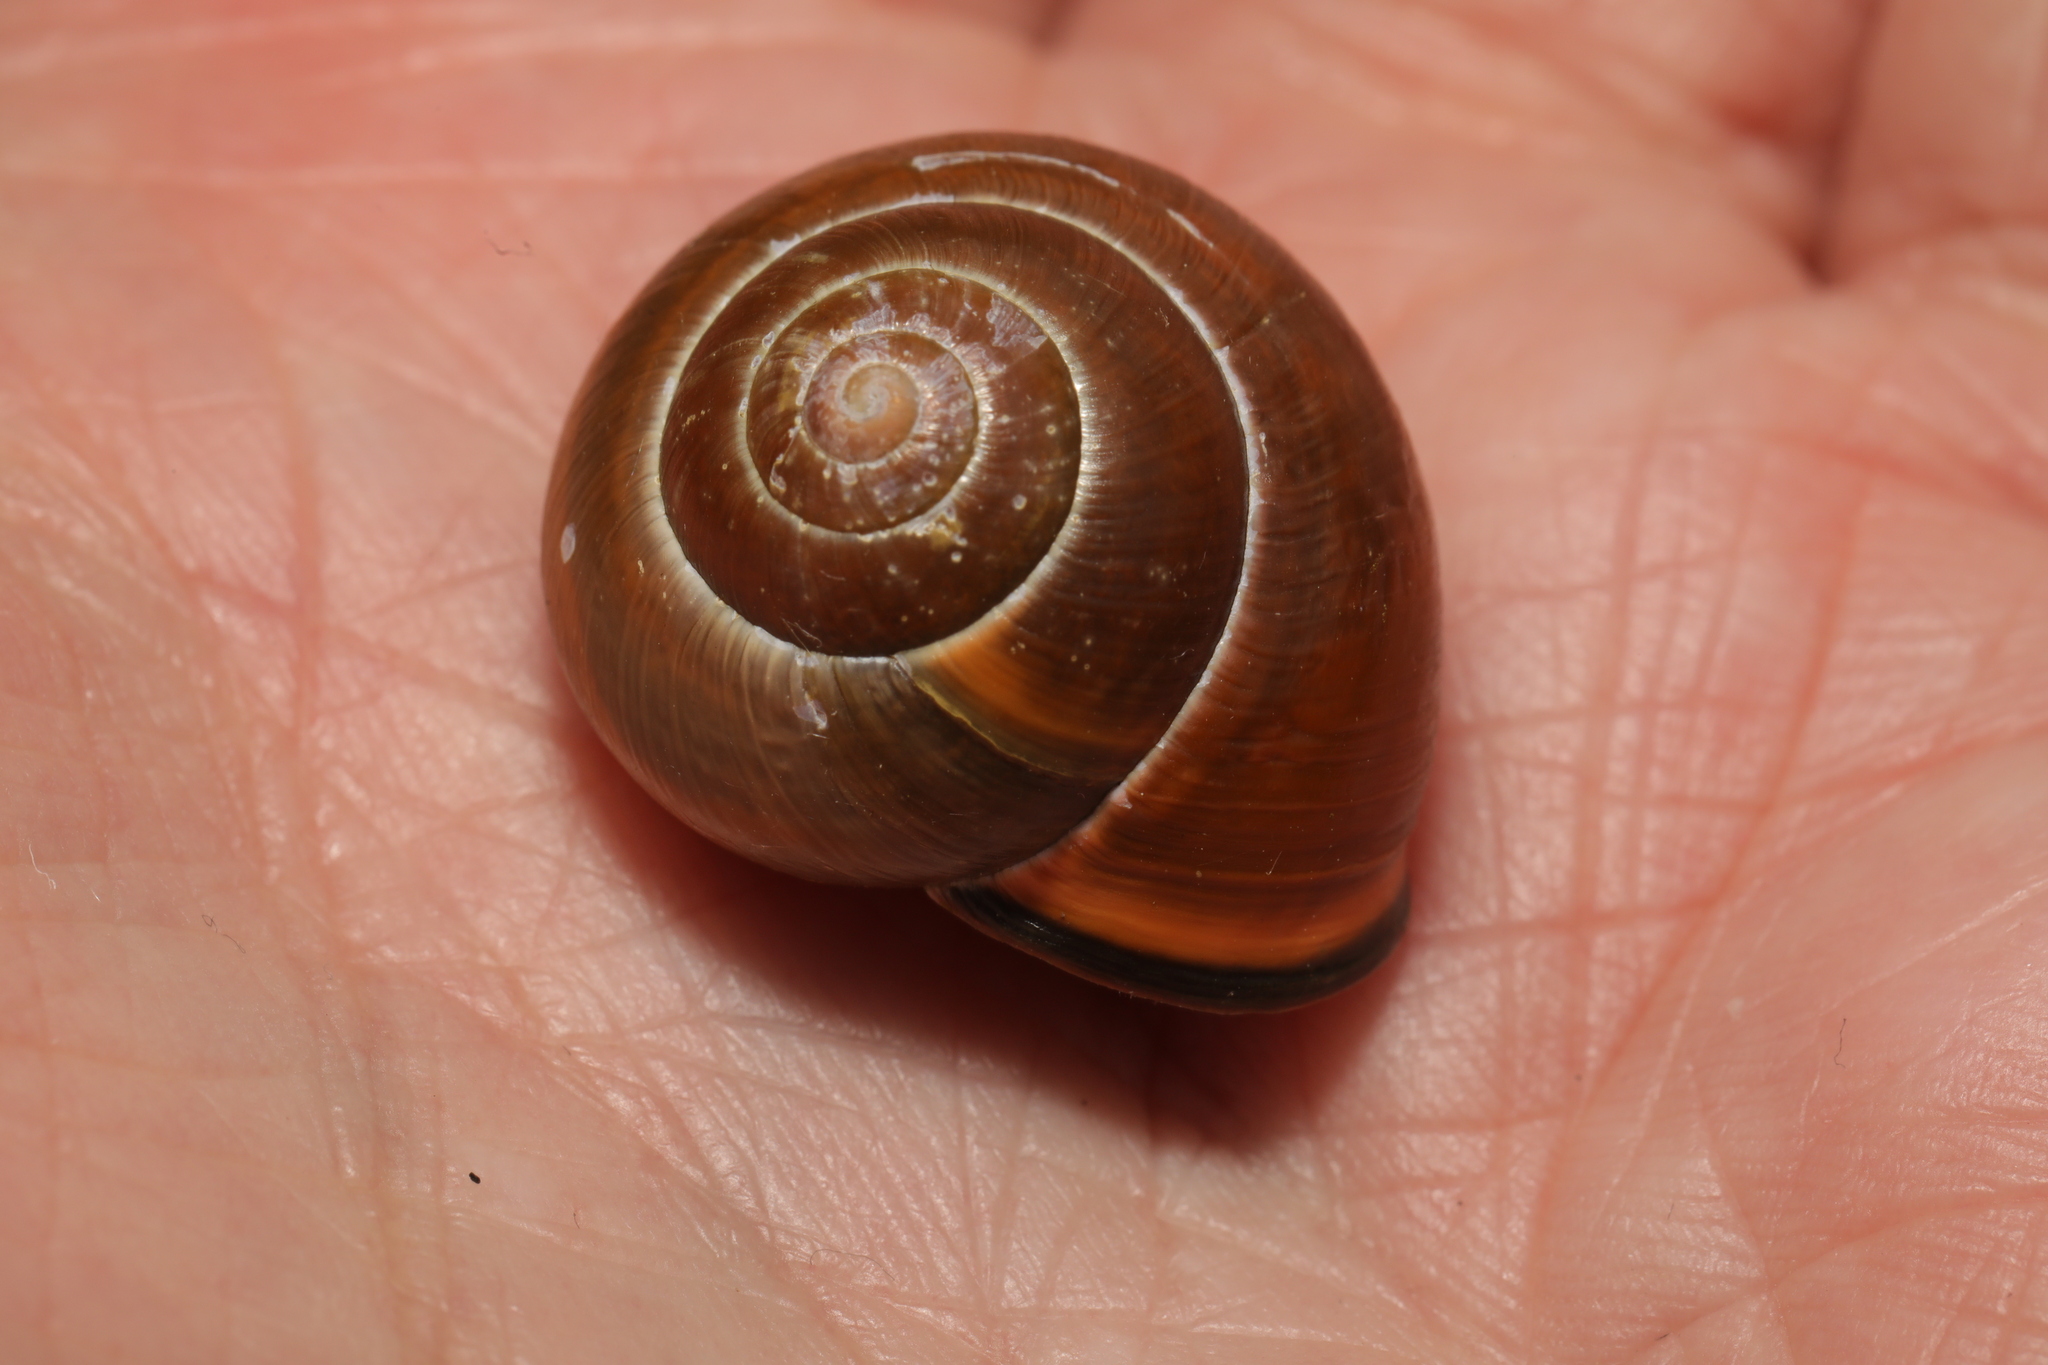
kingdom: Animalia
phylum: Mollusca
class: Gastropoda
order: Stylommatophora
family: Helicidae
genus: Cepaea
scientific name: Cepaea nemoralis
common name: Grovesnail
